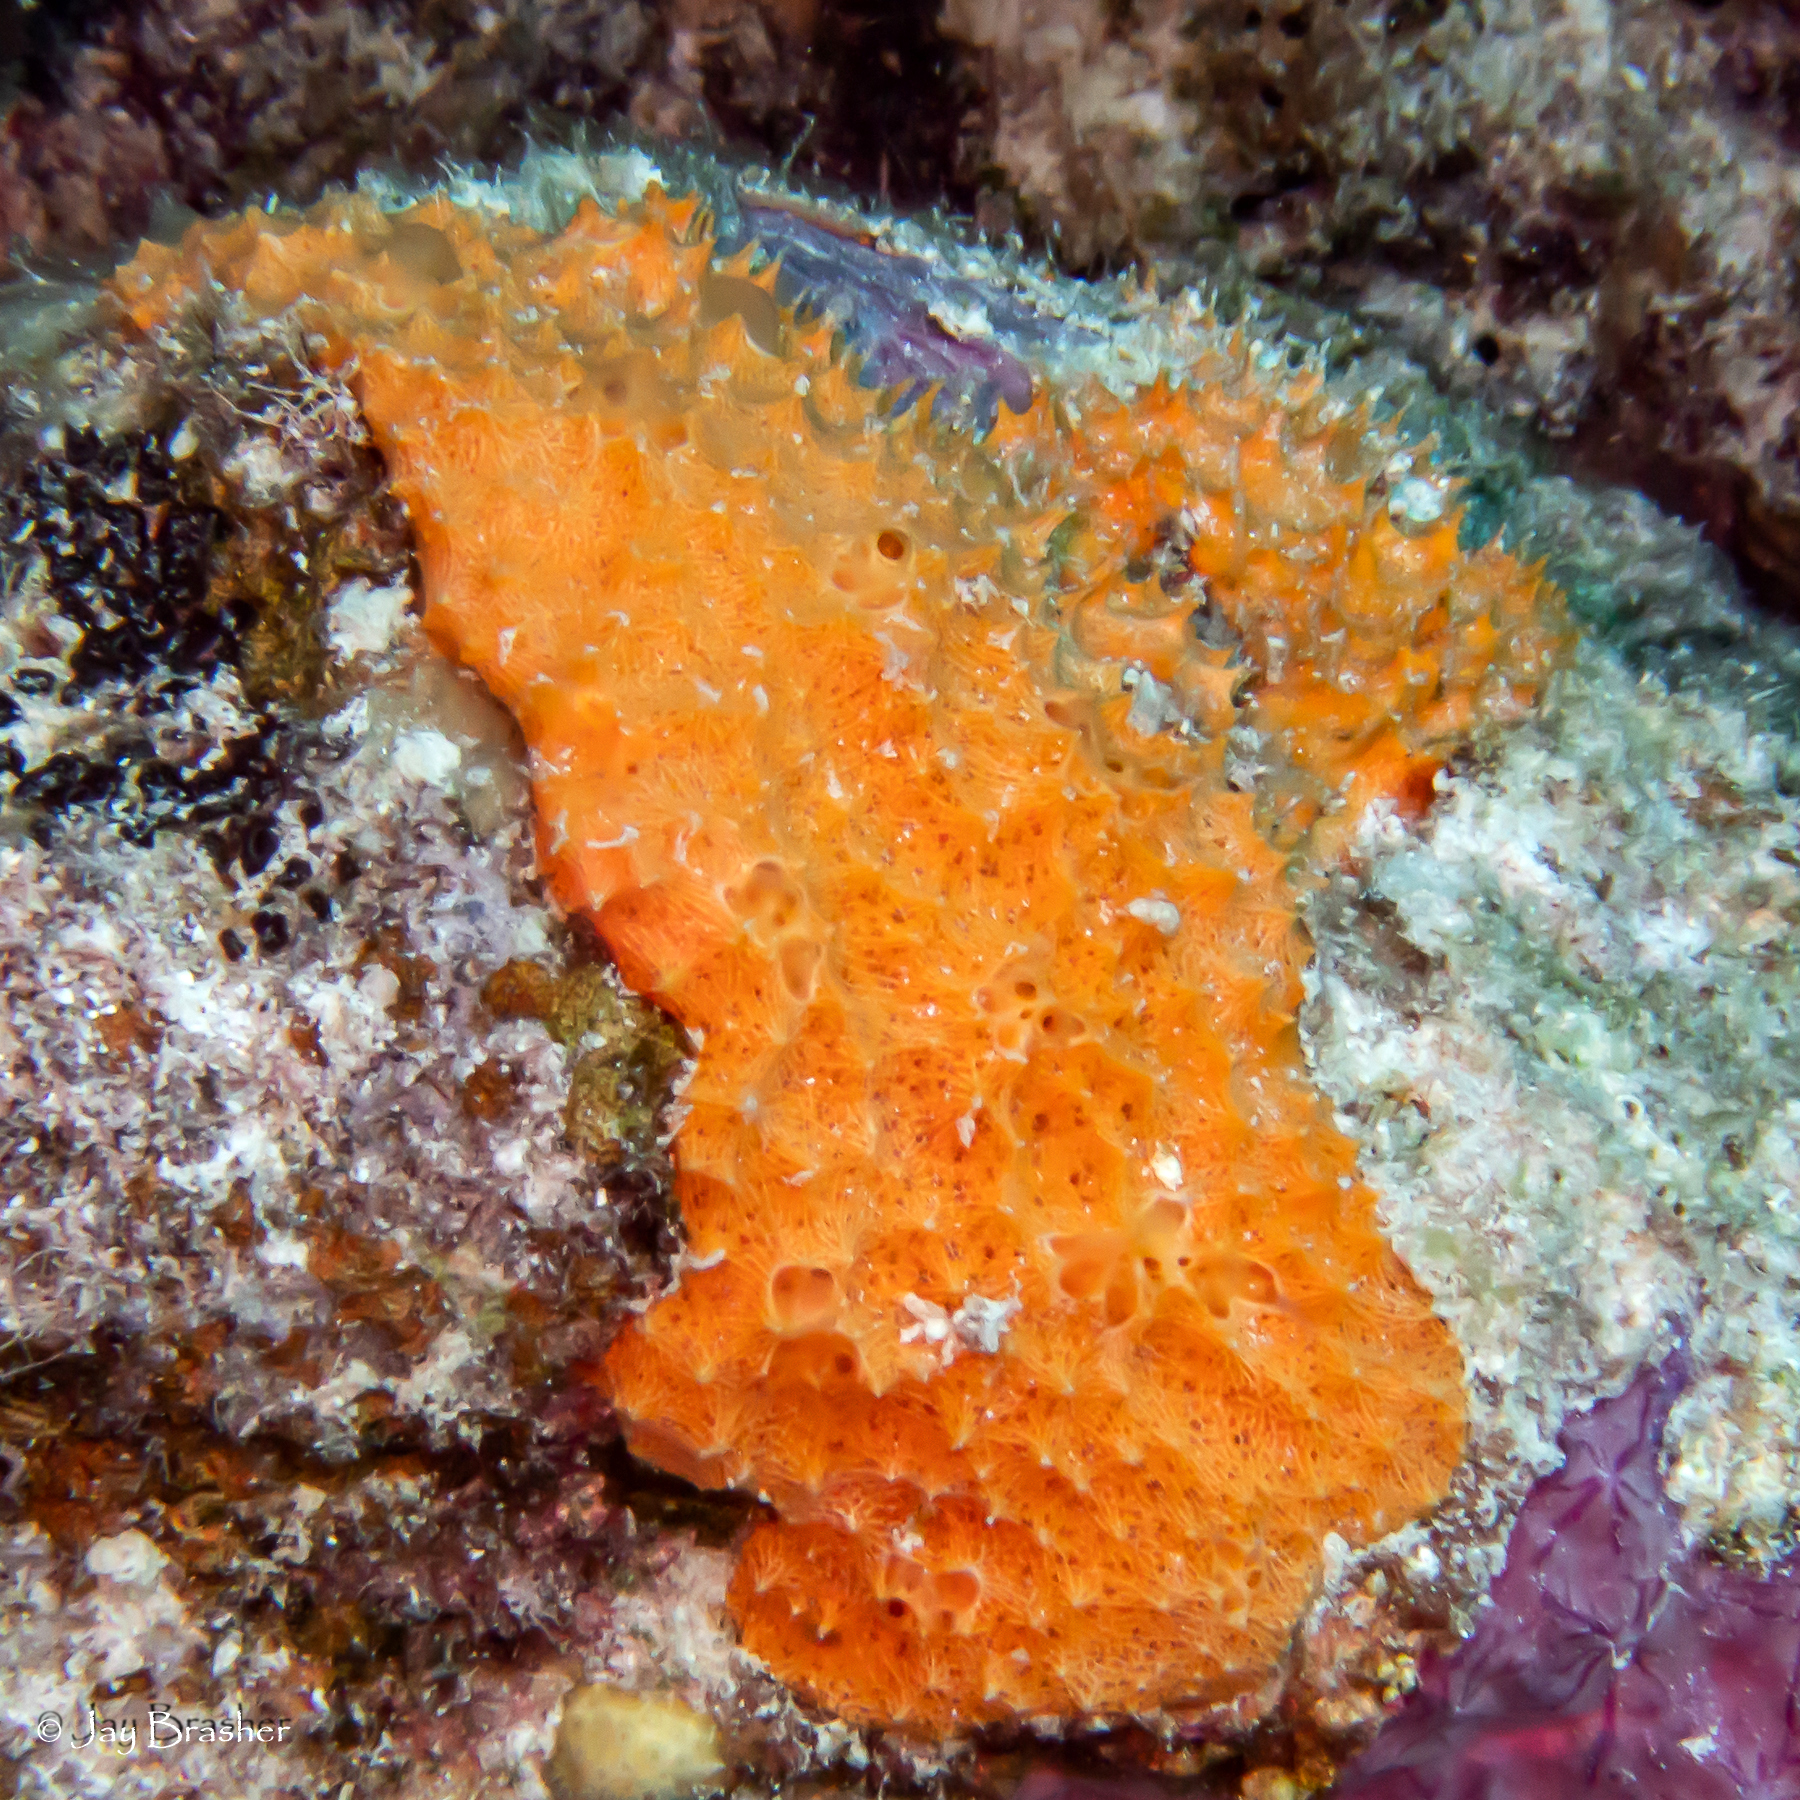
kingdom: Animalia
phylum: Porifera
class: Demospongiae
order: Scopalinida
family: Scopalinidae
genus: Scopalina
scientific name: Scopalina ruetzleri
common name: Orange lumpy encrusting sponge
